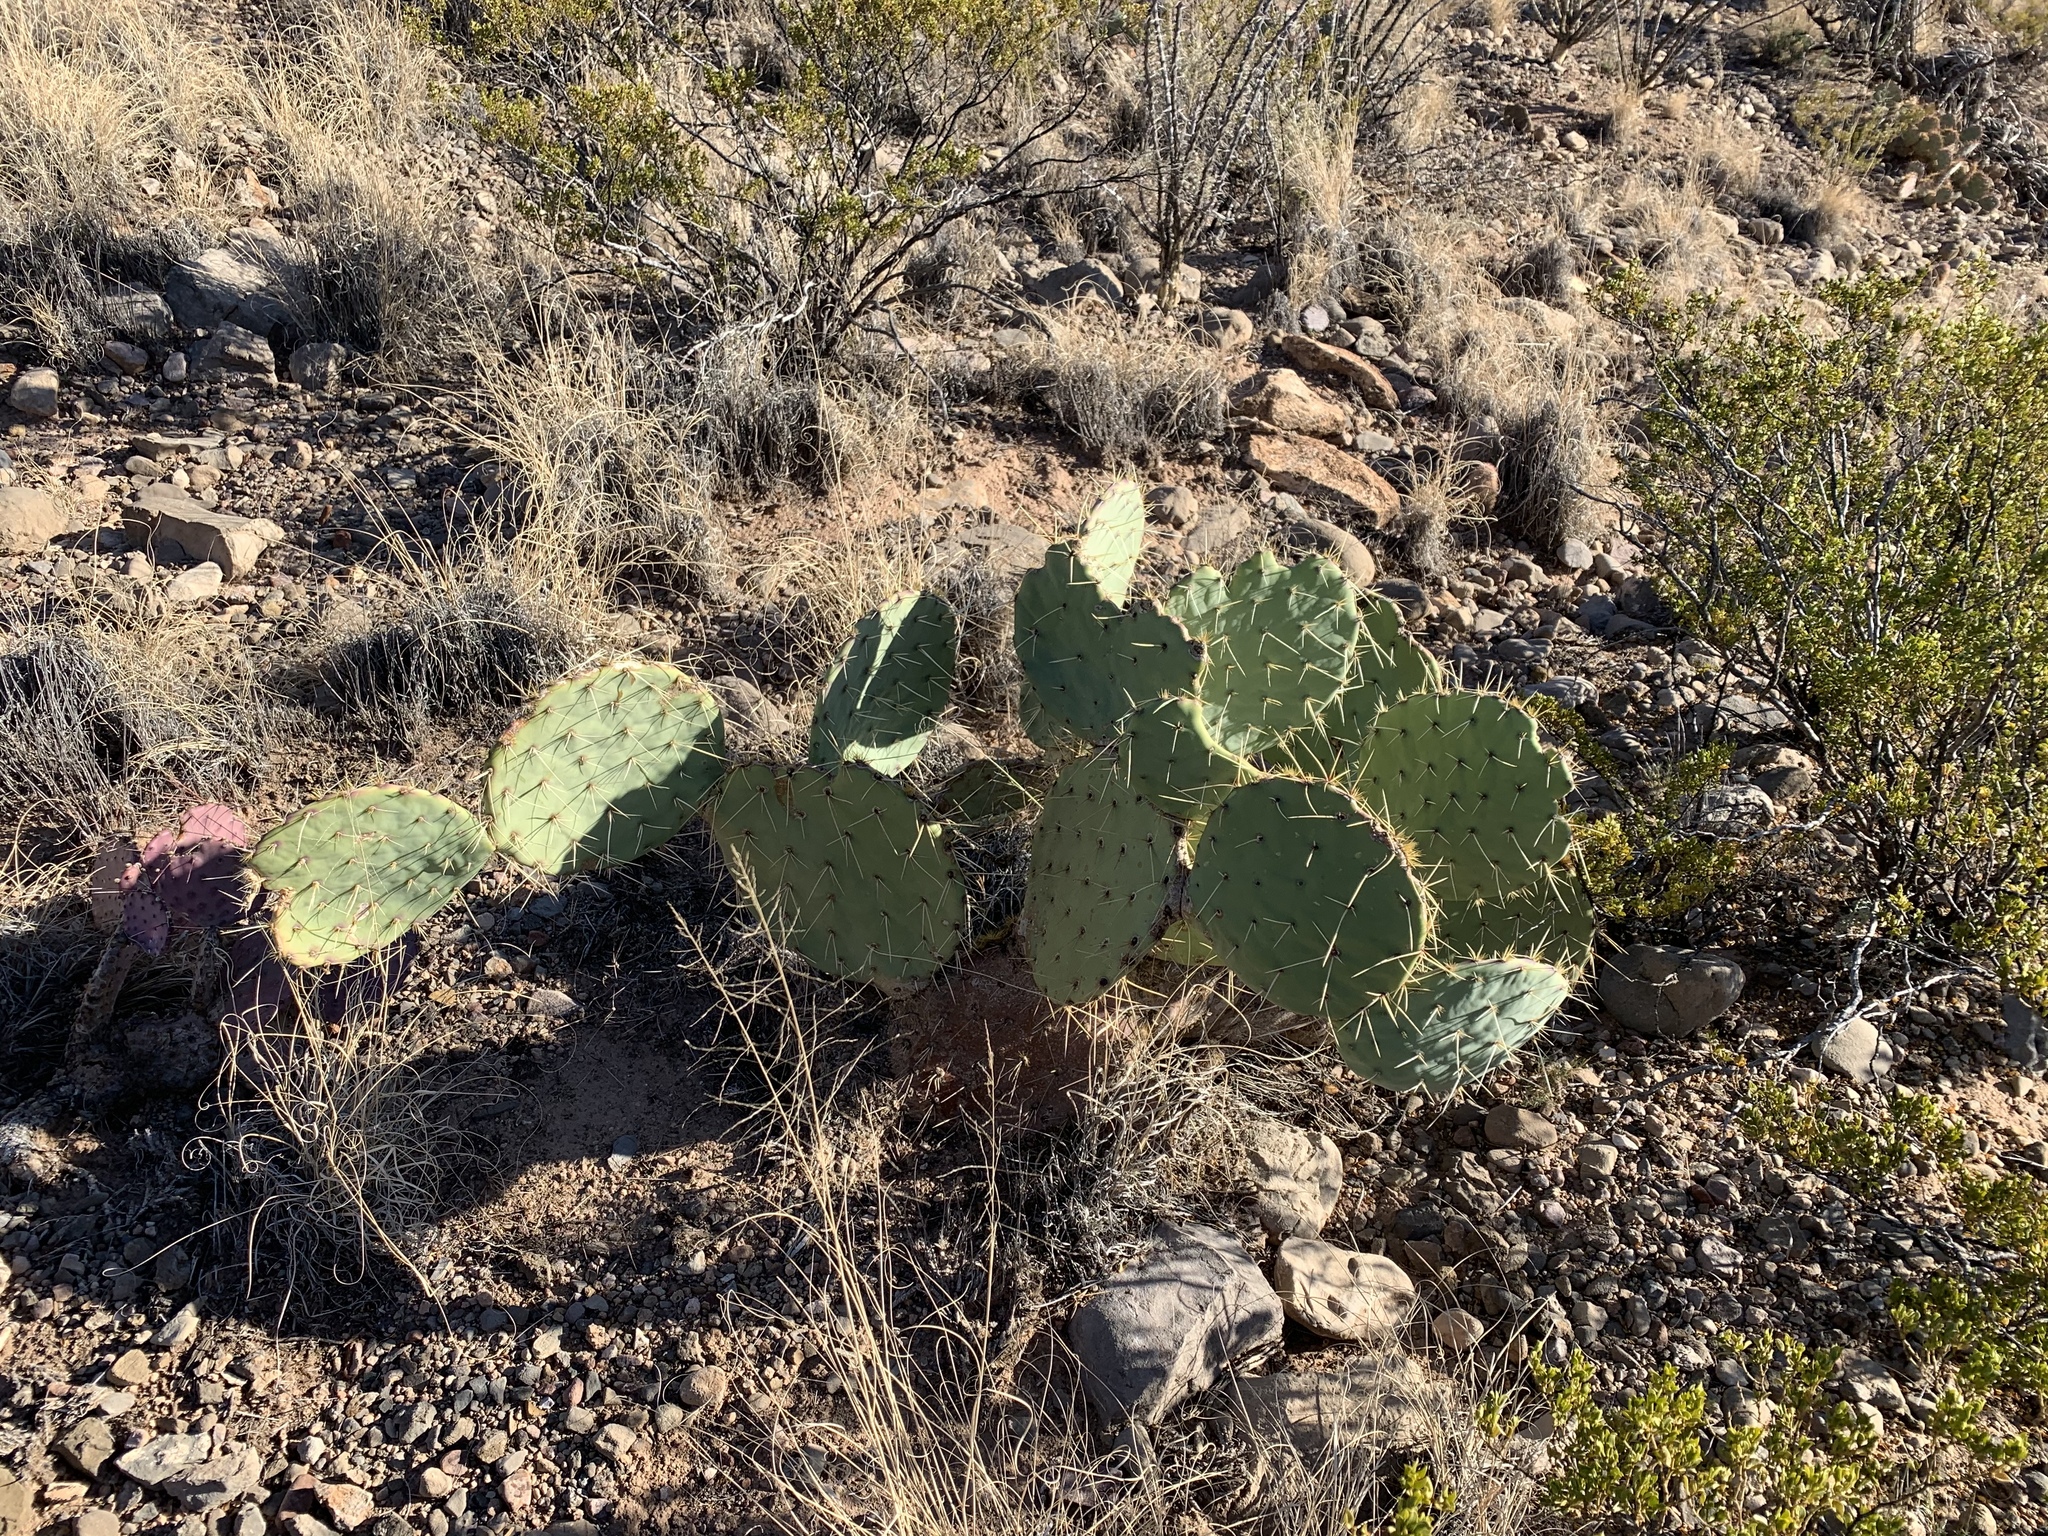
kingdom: Plantae
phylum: Tracheophyta
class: Magnoliopsida
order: Caryophyllales
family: Cactaceae
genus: Opuntia
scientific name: Opuntia engelmannii
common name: Cactus-apple
